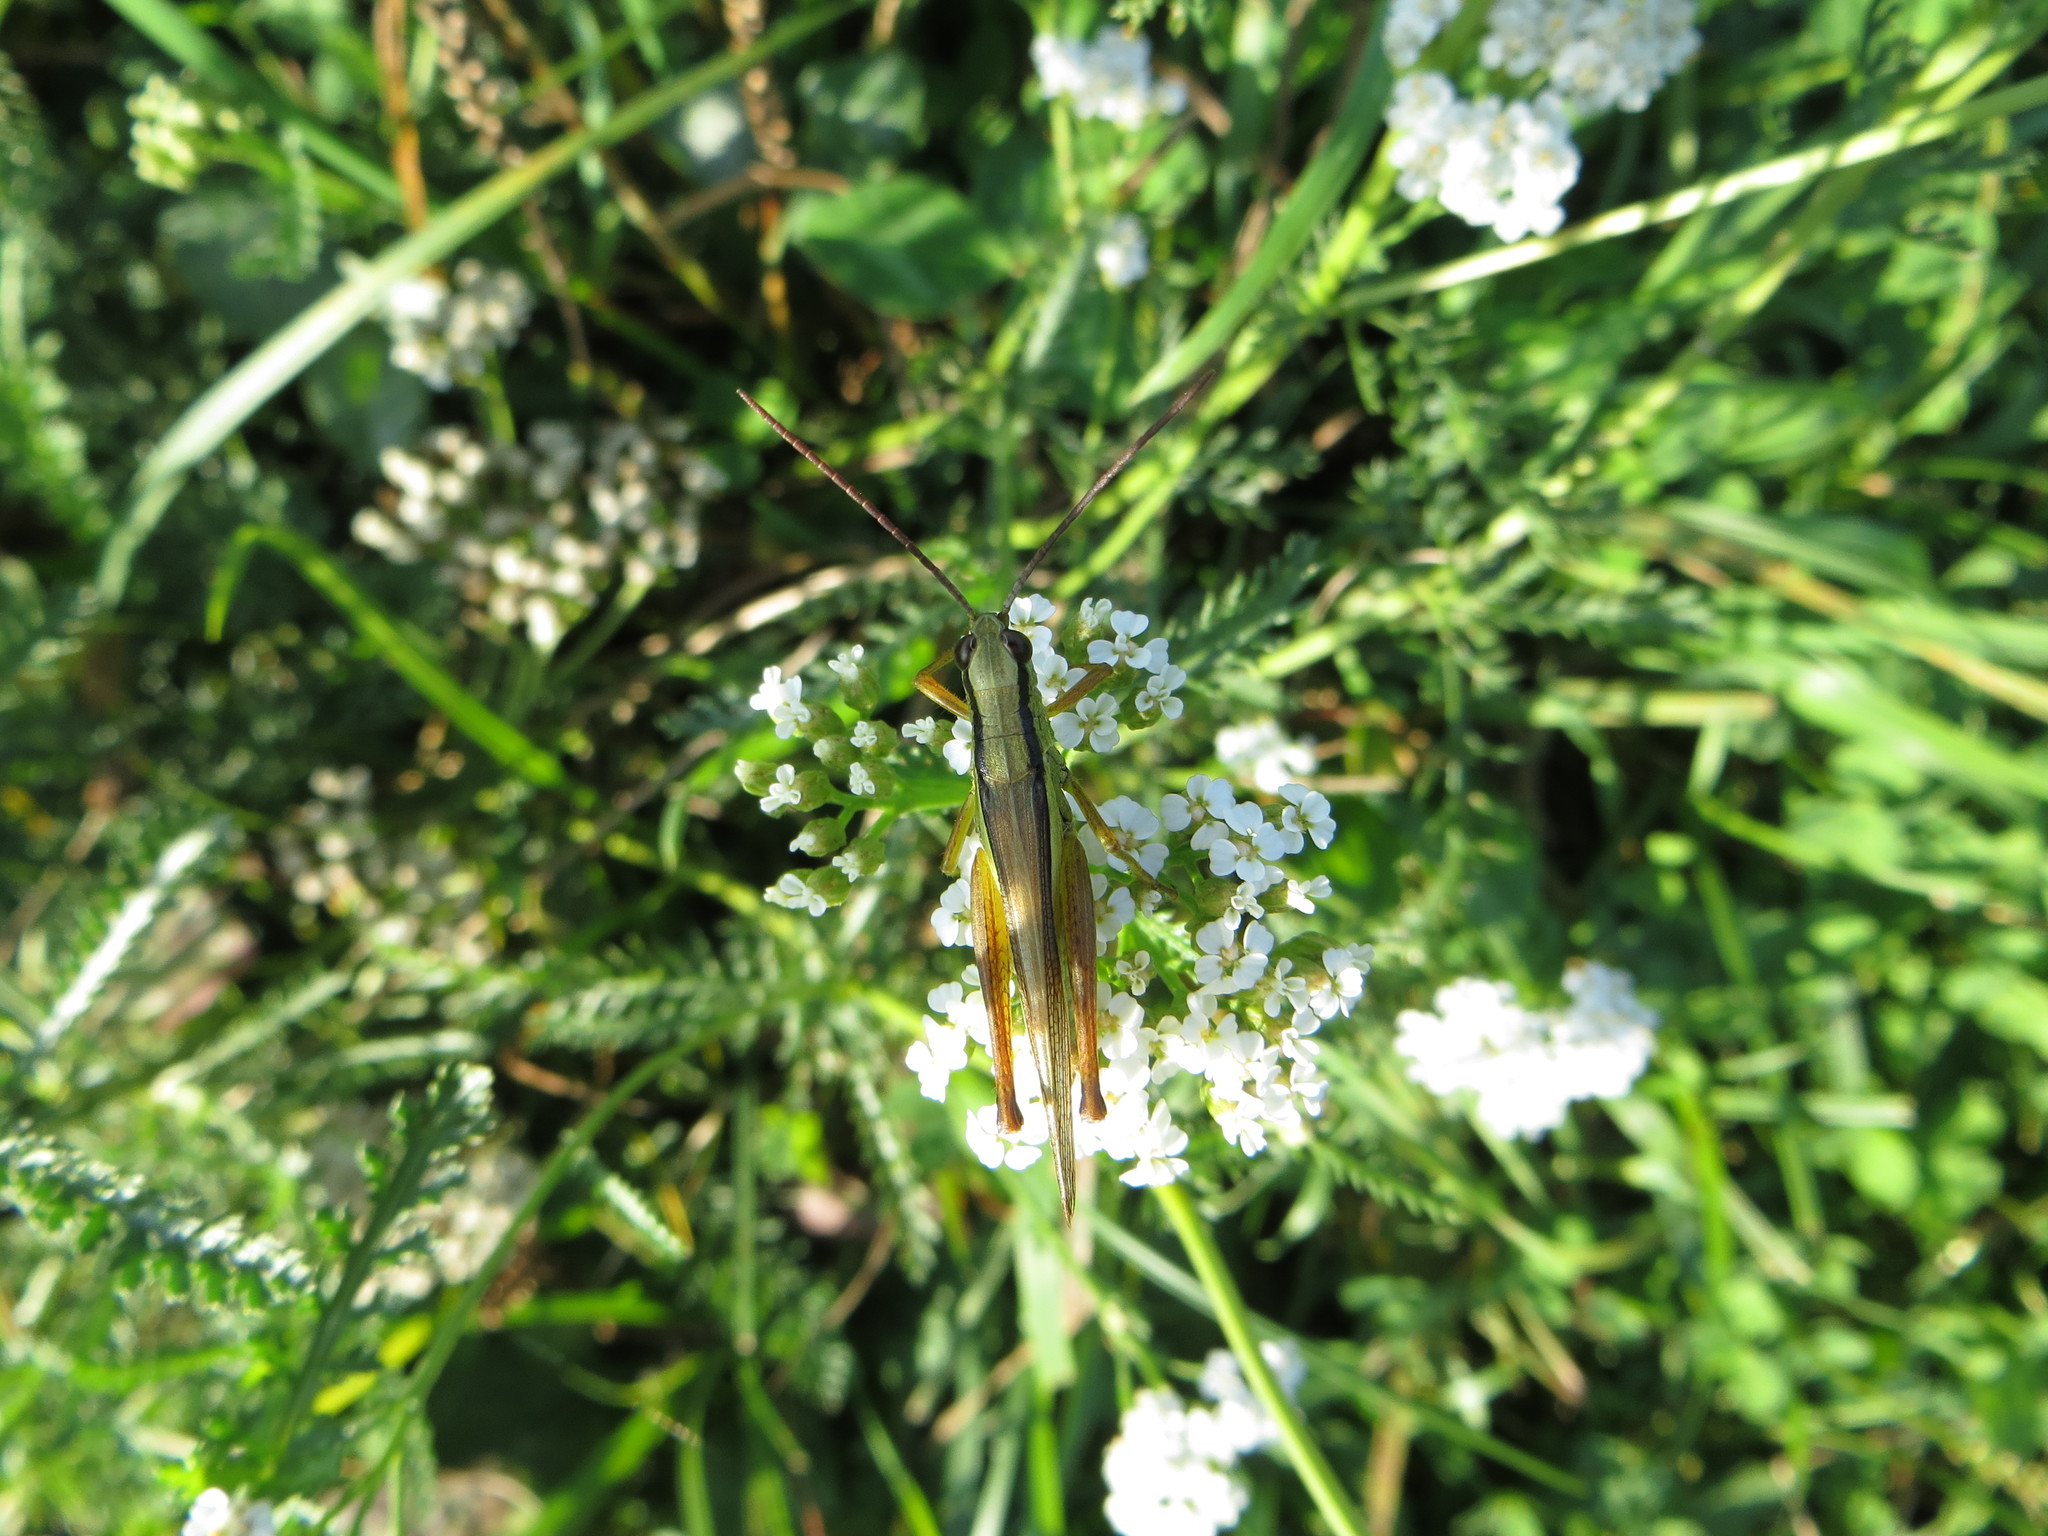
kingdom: Animalia
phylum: Arthropoda
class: Insecta
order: Orthoptera
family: Acrididae
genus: Mecostethus
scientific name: Mecostethus parapleurus
